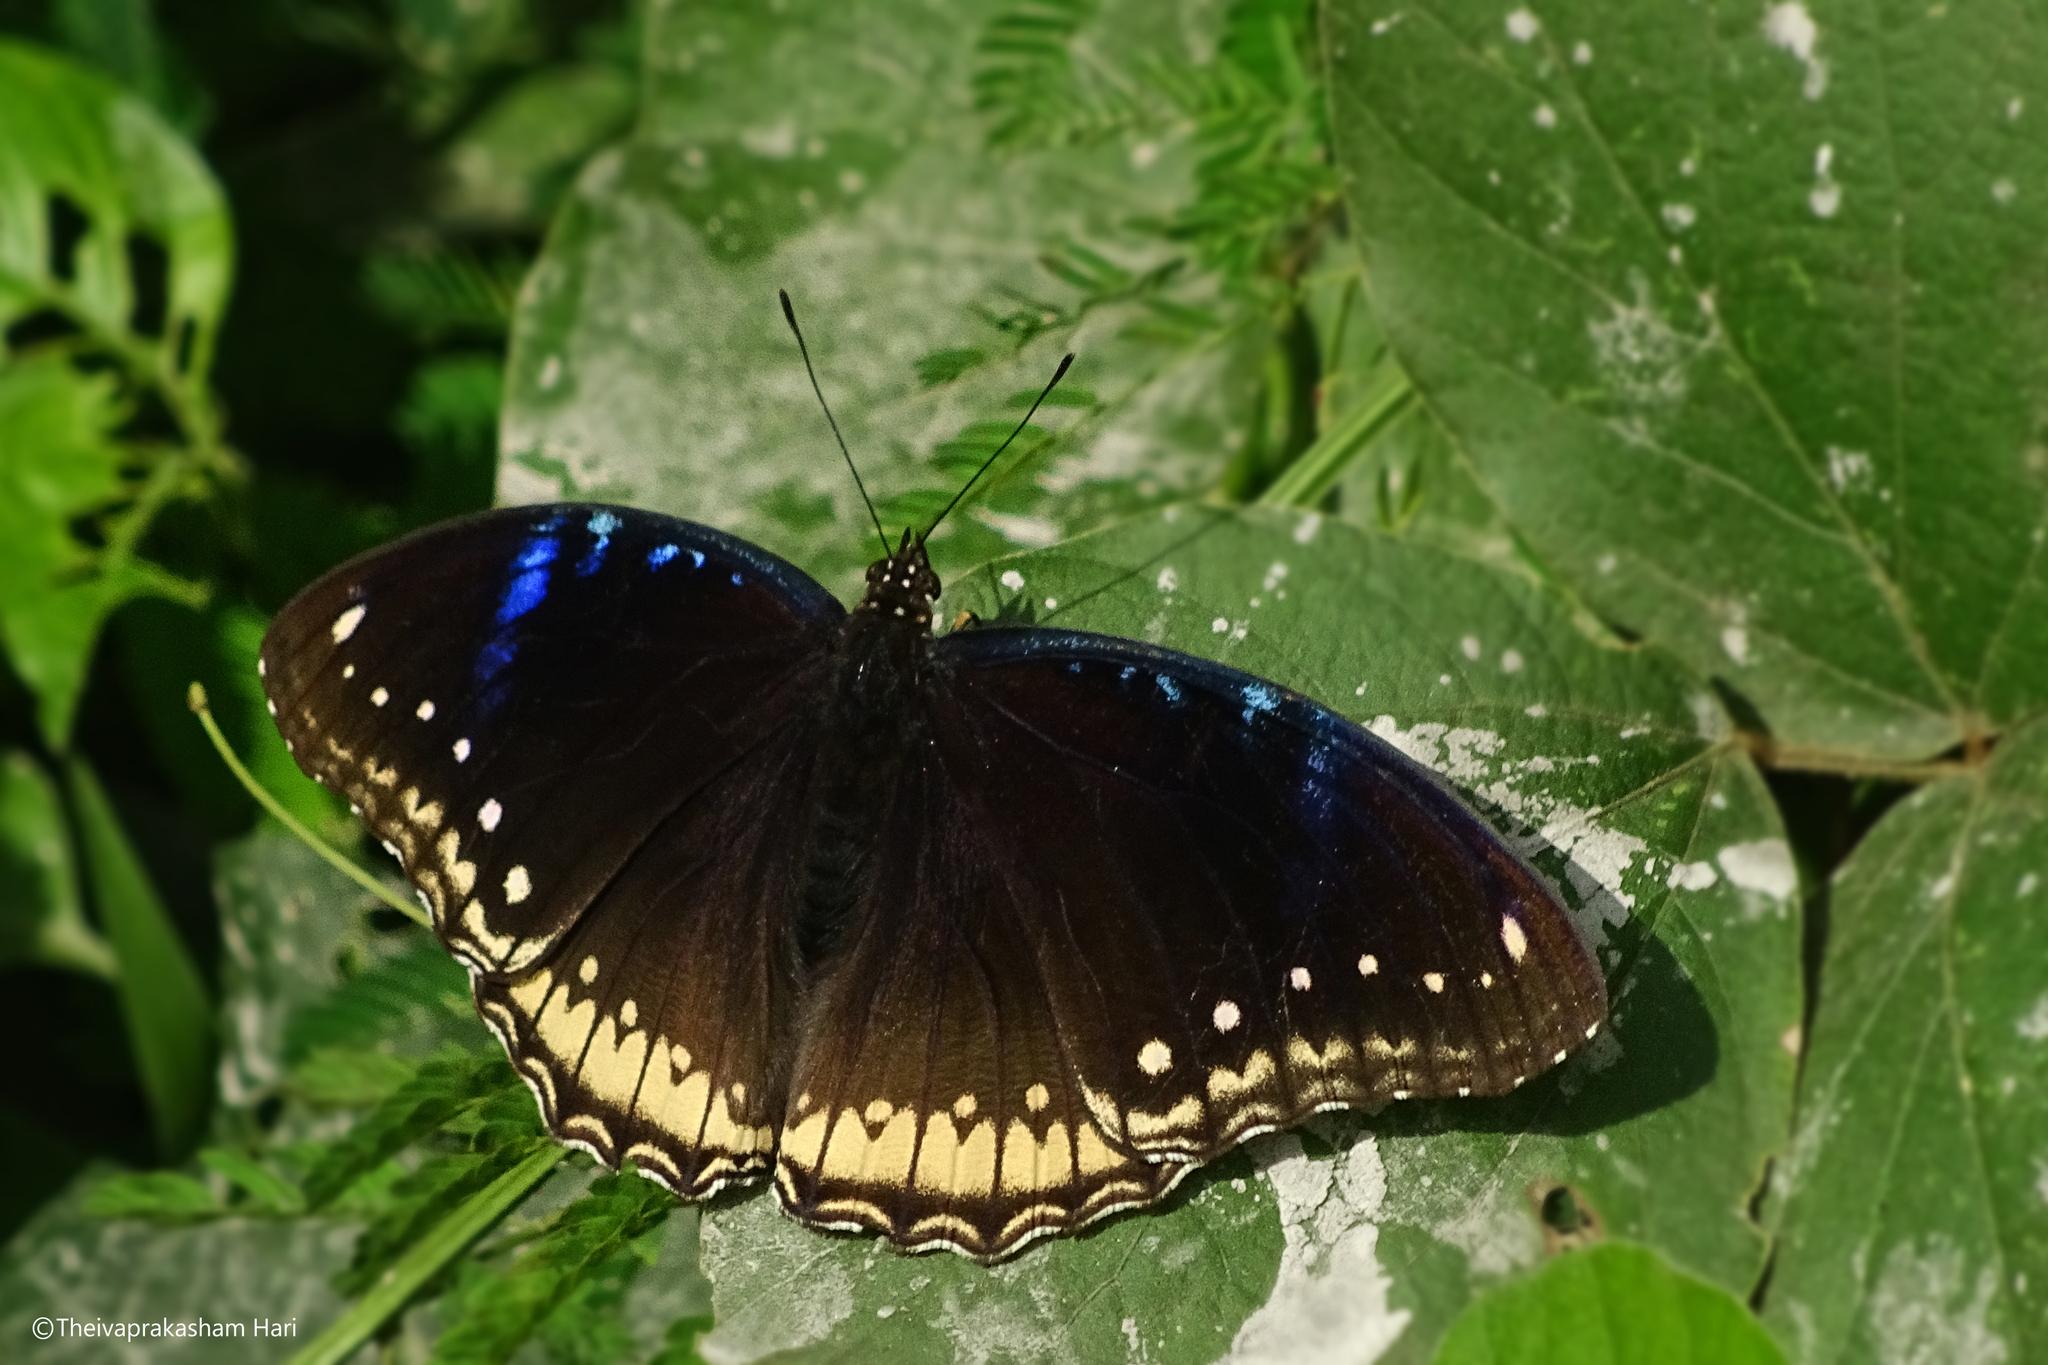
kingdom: Animalia
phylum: Arthropoda
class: Insecta
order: Lepidoptera
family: Nymphalidae
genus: Hypolimnas
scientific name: Hypolimnas bolina
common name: Great eggfly
